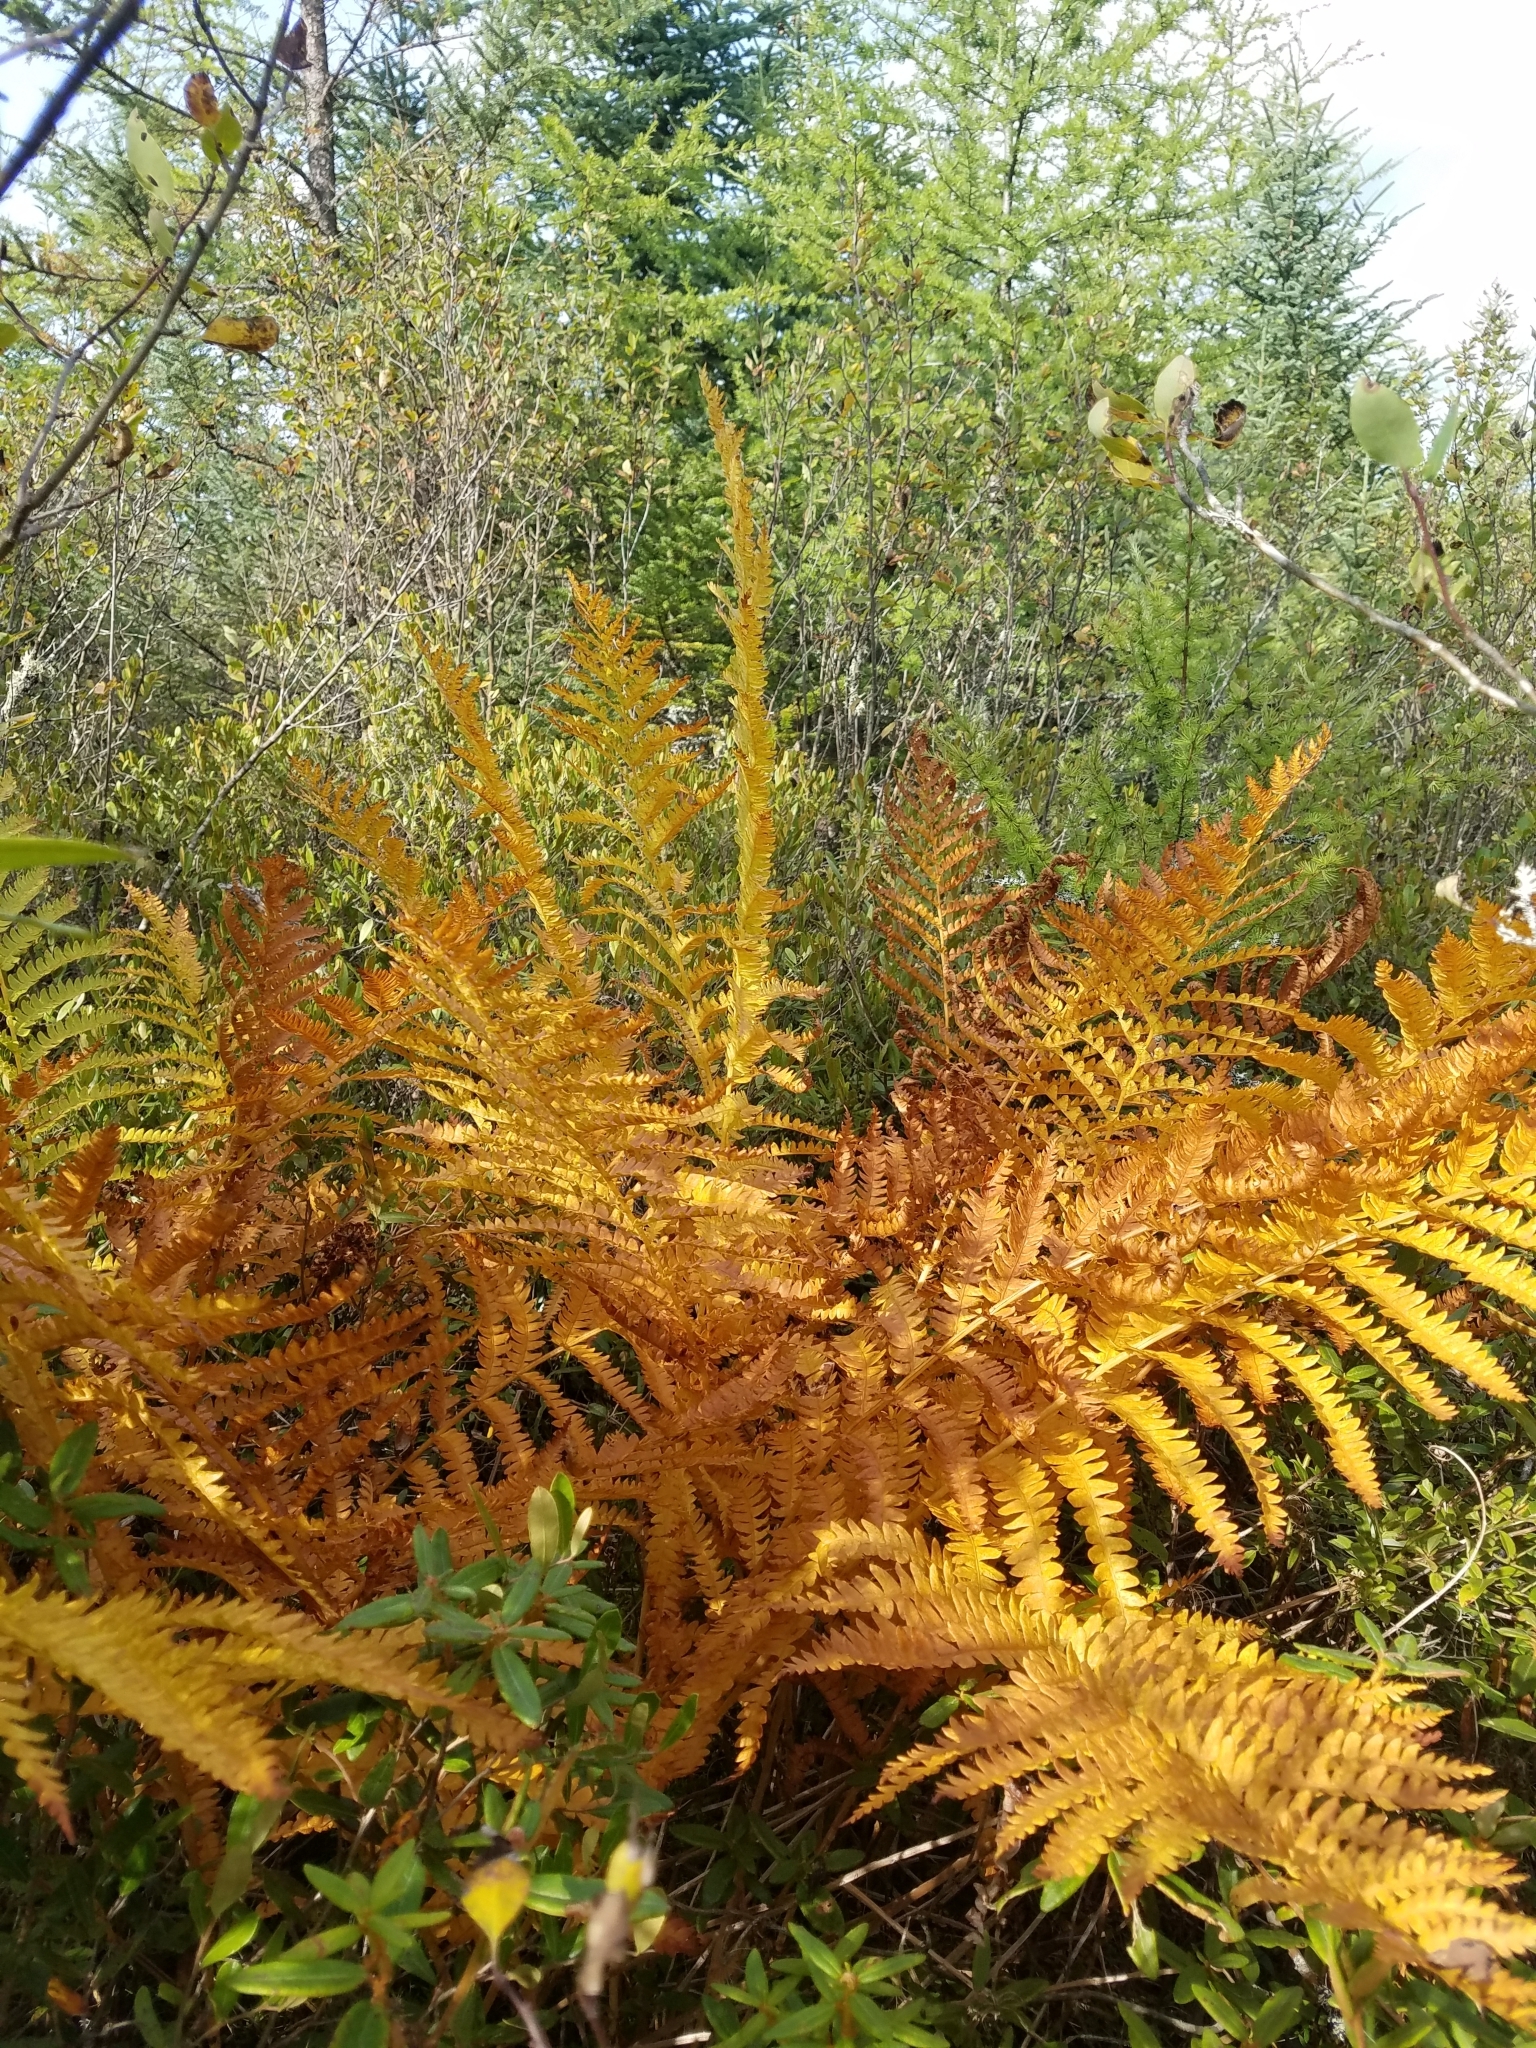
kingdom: Plantae
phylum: Tracheophyta
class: Polypodiopsida
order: Osmundales
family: Osmundaceae
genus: Osmundastrum
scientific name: Osmundastrum cinnamomeum
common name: Cinnamon fern
